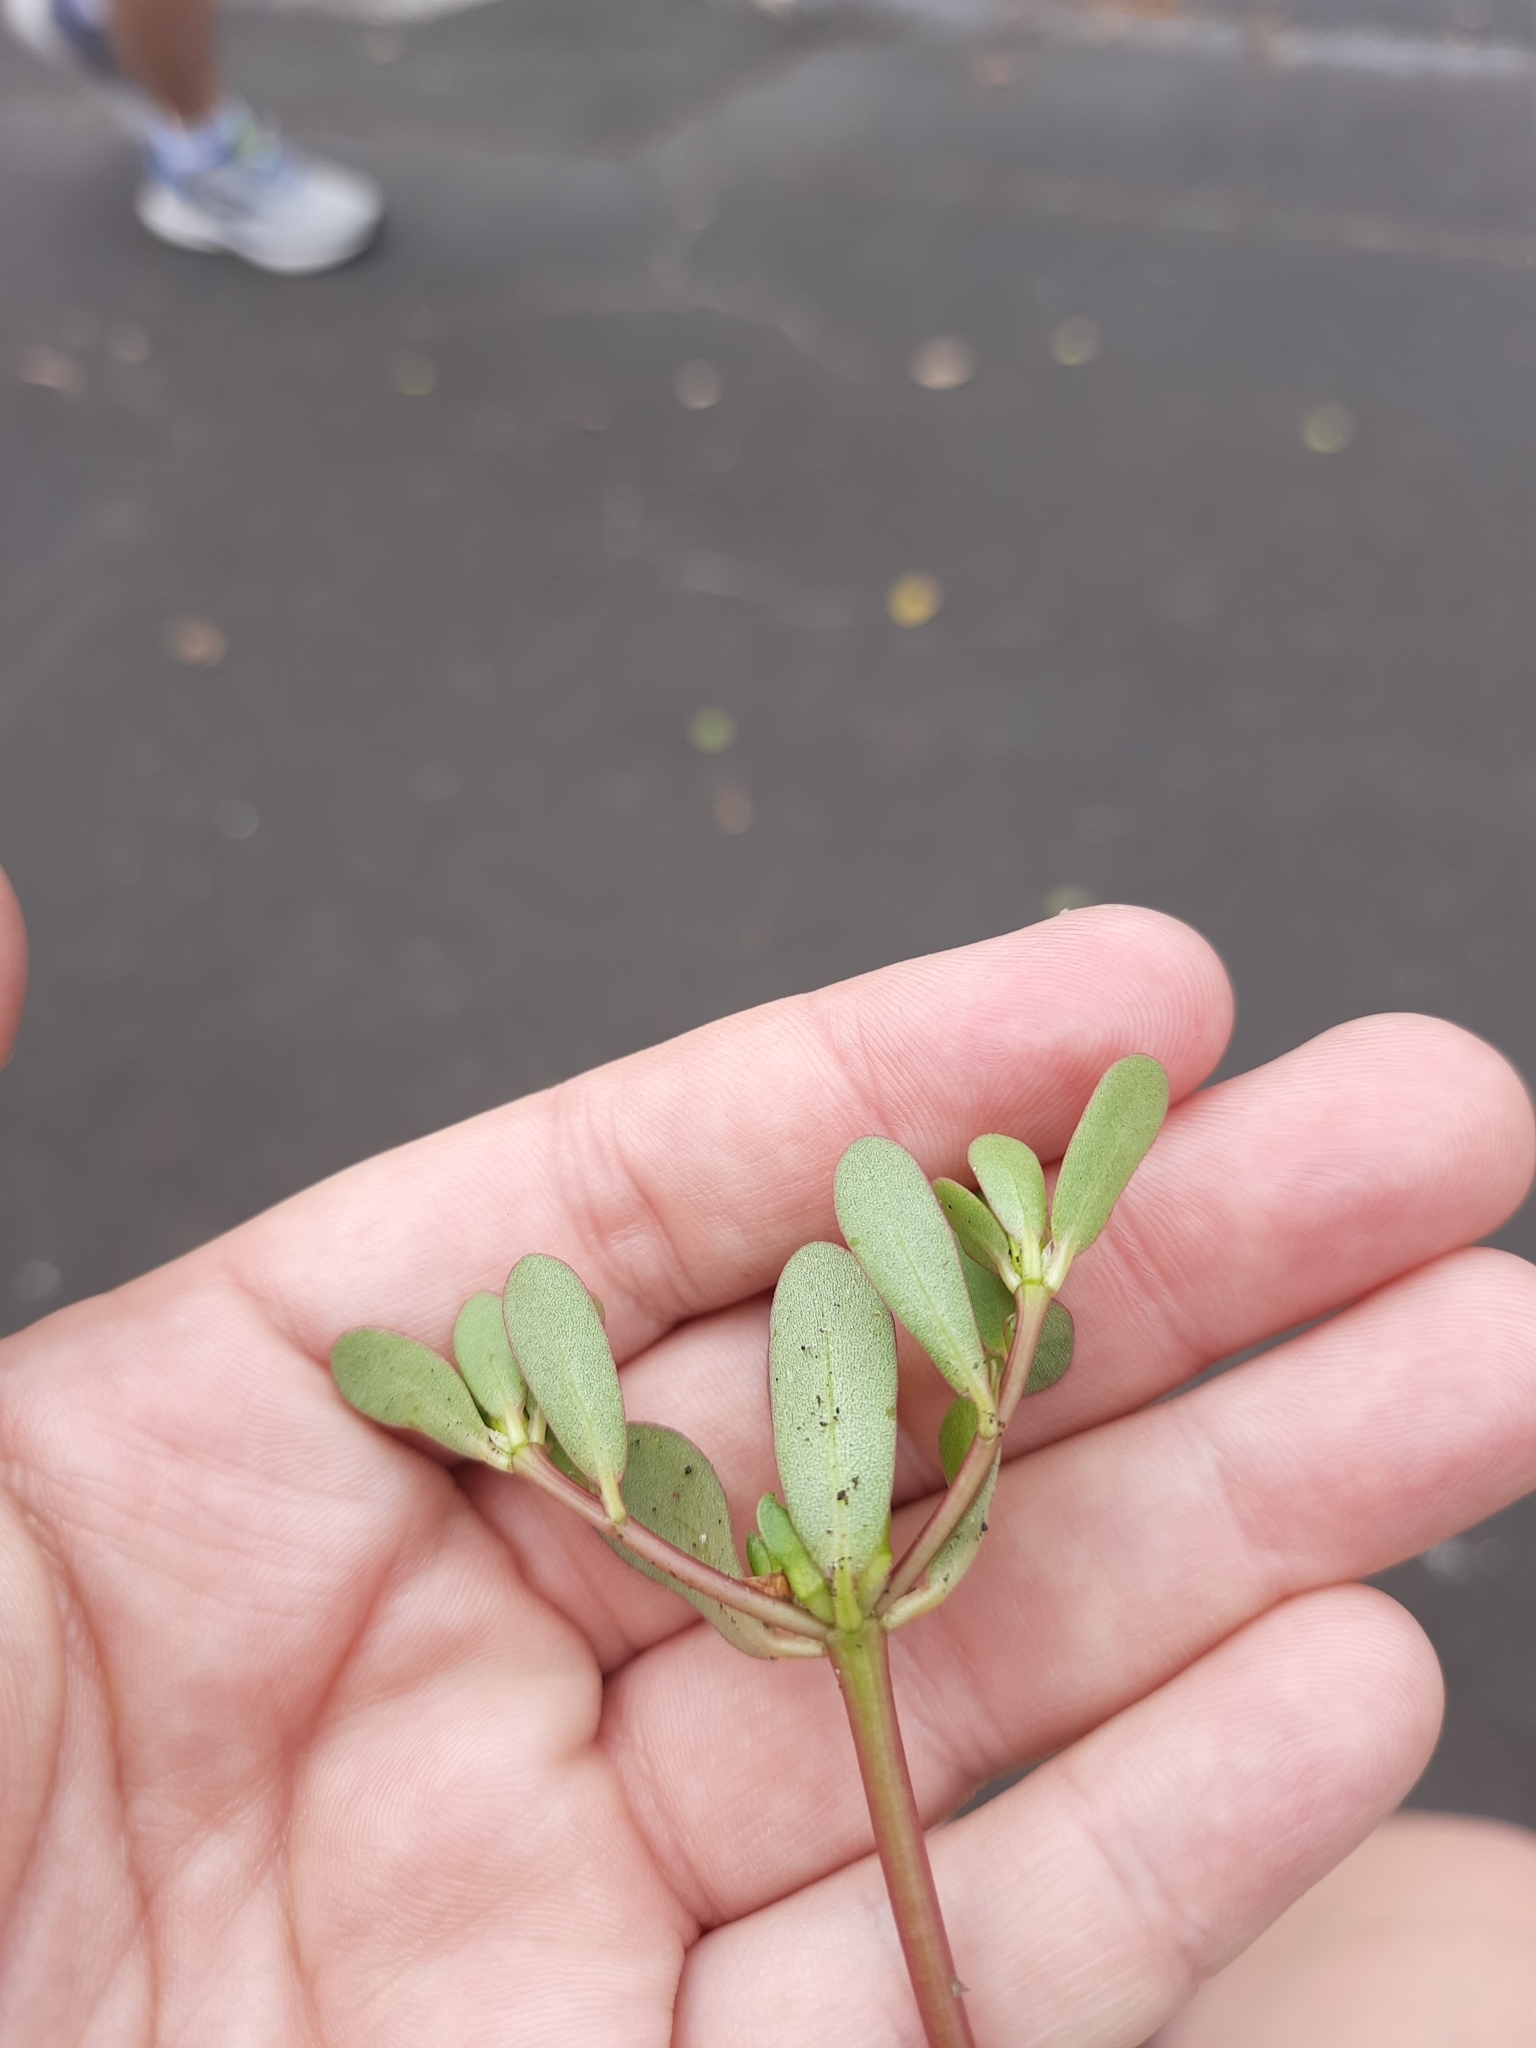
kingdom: Plantae
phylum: Tracheophyta
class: Magnoliopsida
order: Caryophyllales
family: Portulacaceae
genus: Portulaca
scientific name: Portulaca oleracea
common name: Common purslane
